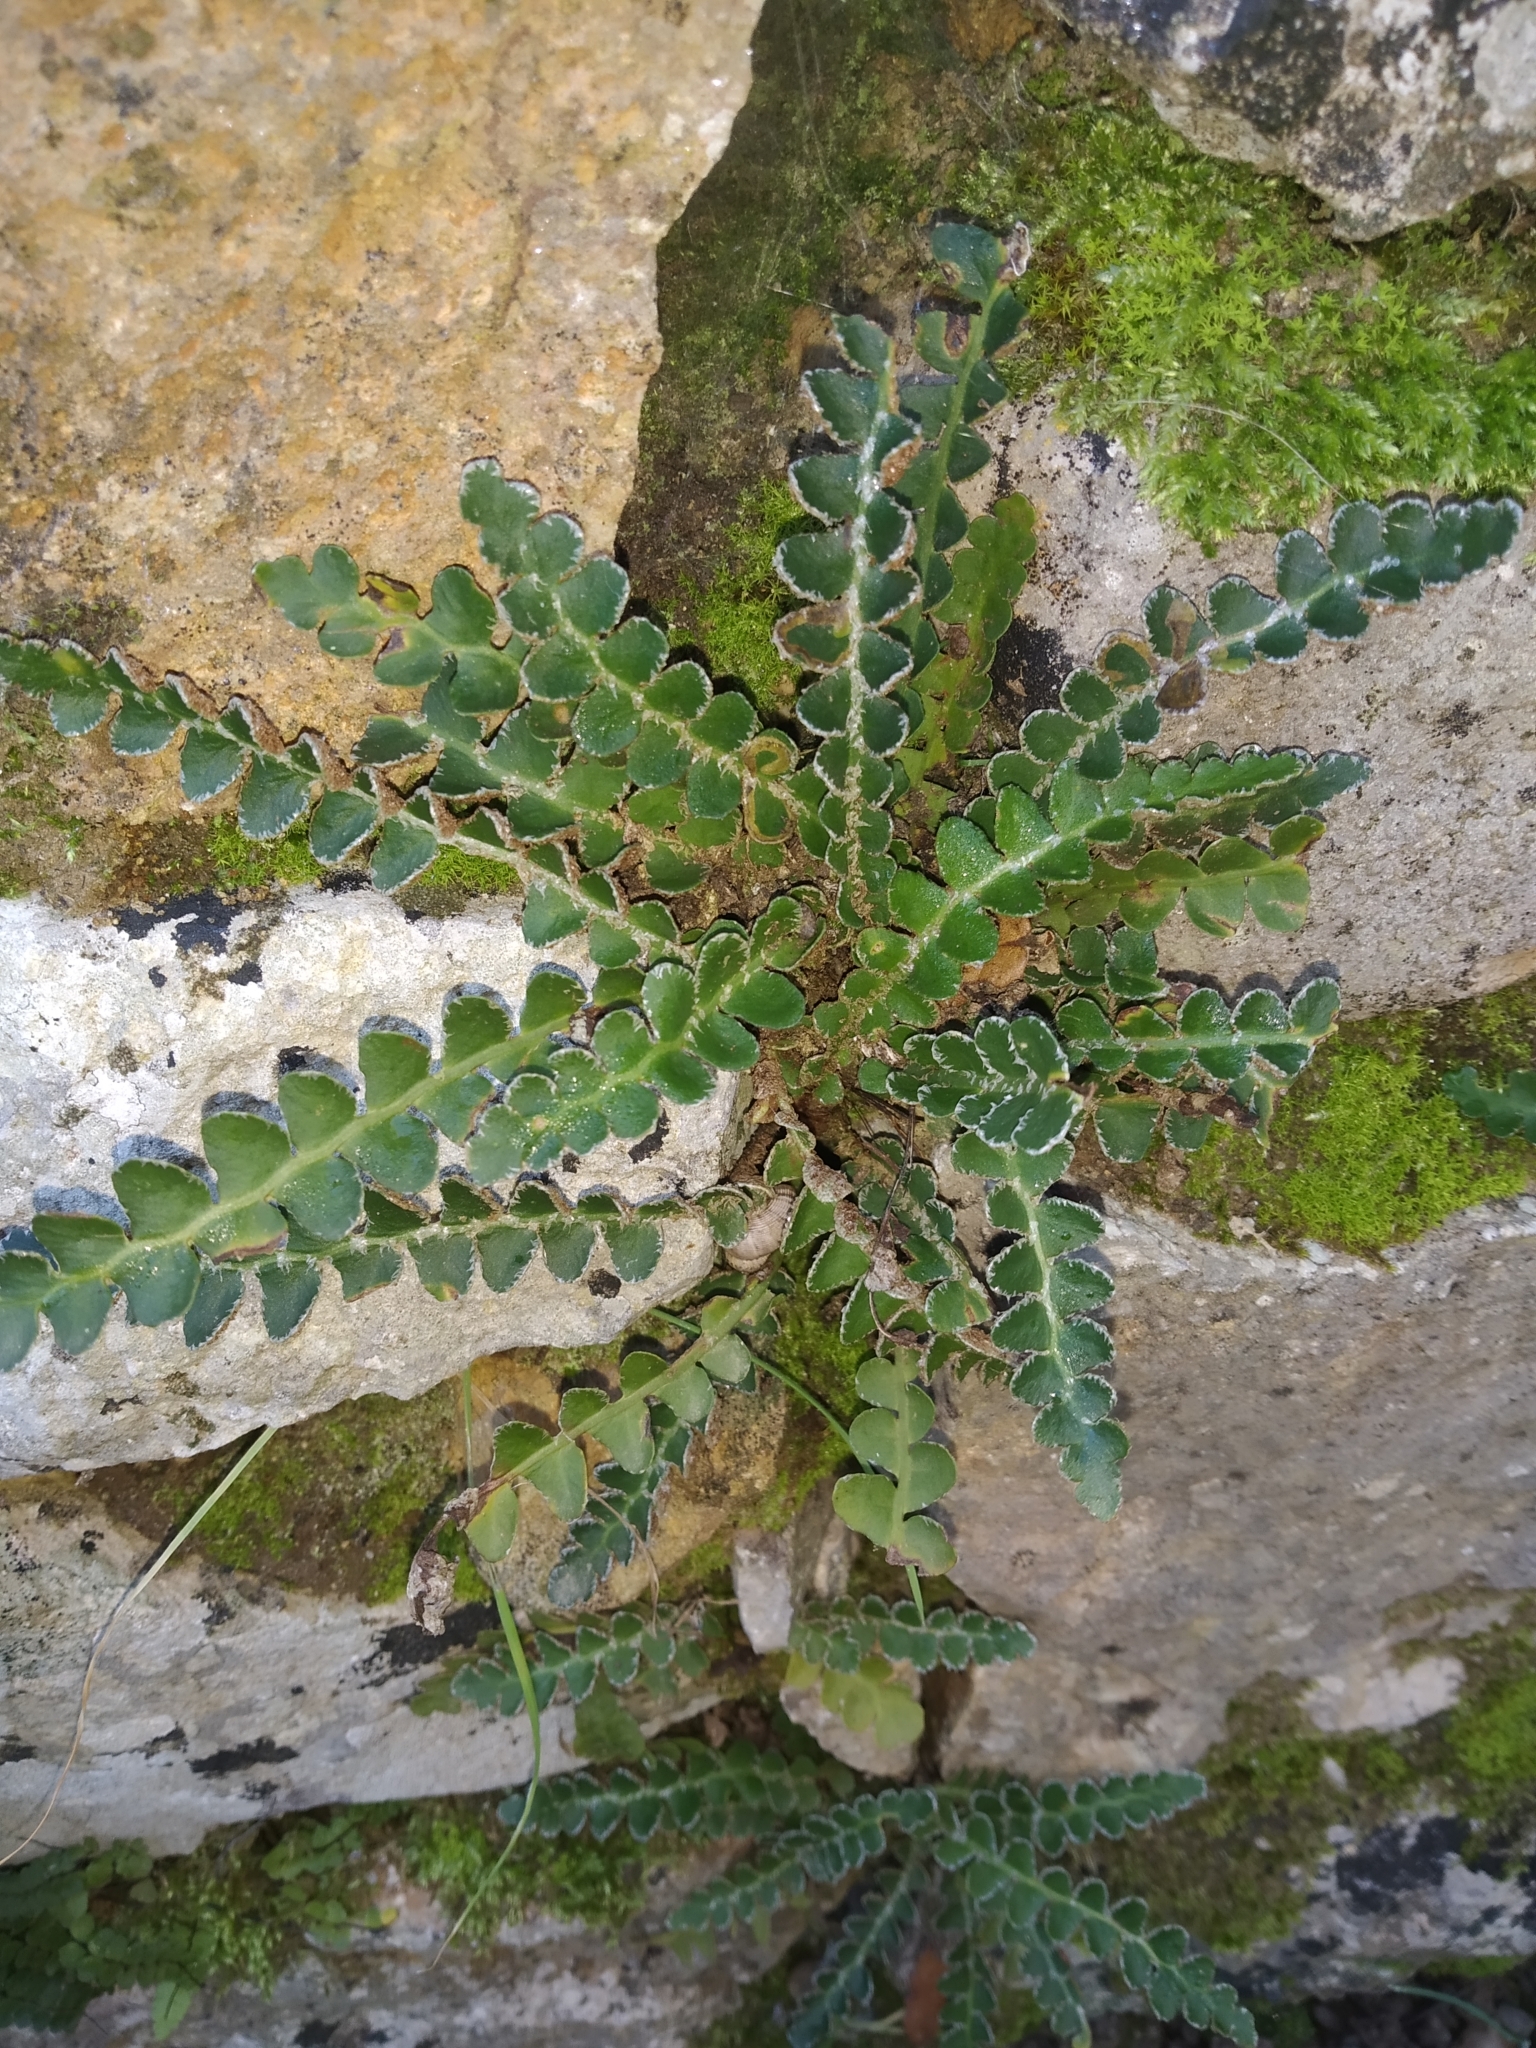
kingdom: Plantae
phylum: Tracheophyta
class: Polypodiopsida
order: Polypodiales
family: Aspleniaceae
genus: Asplenium
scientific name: Asplenium ceterach
